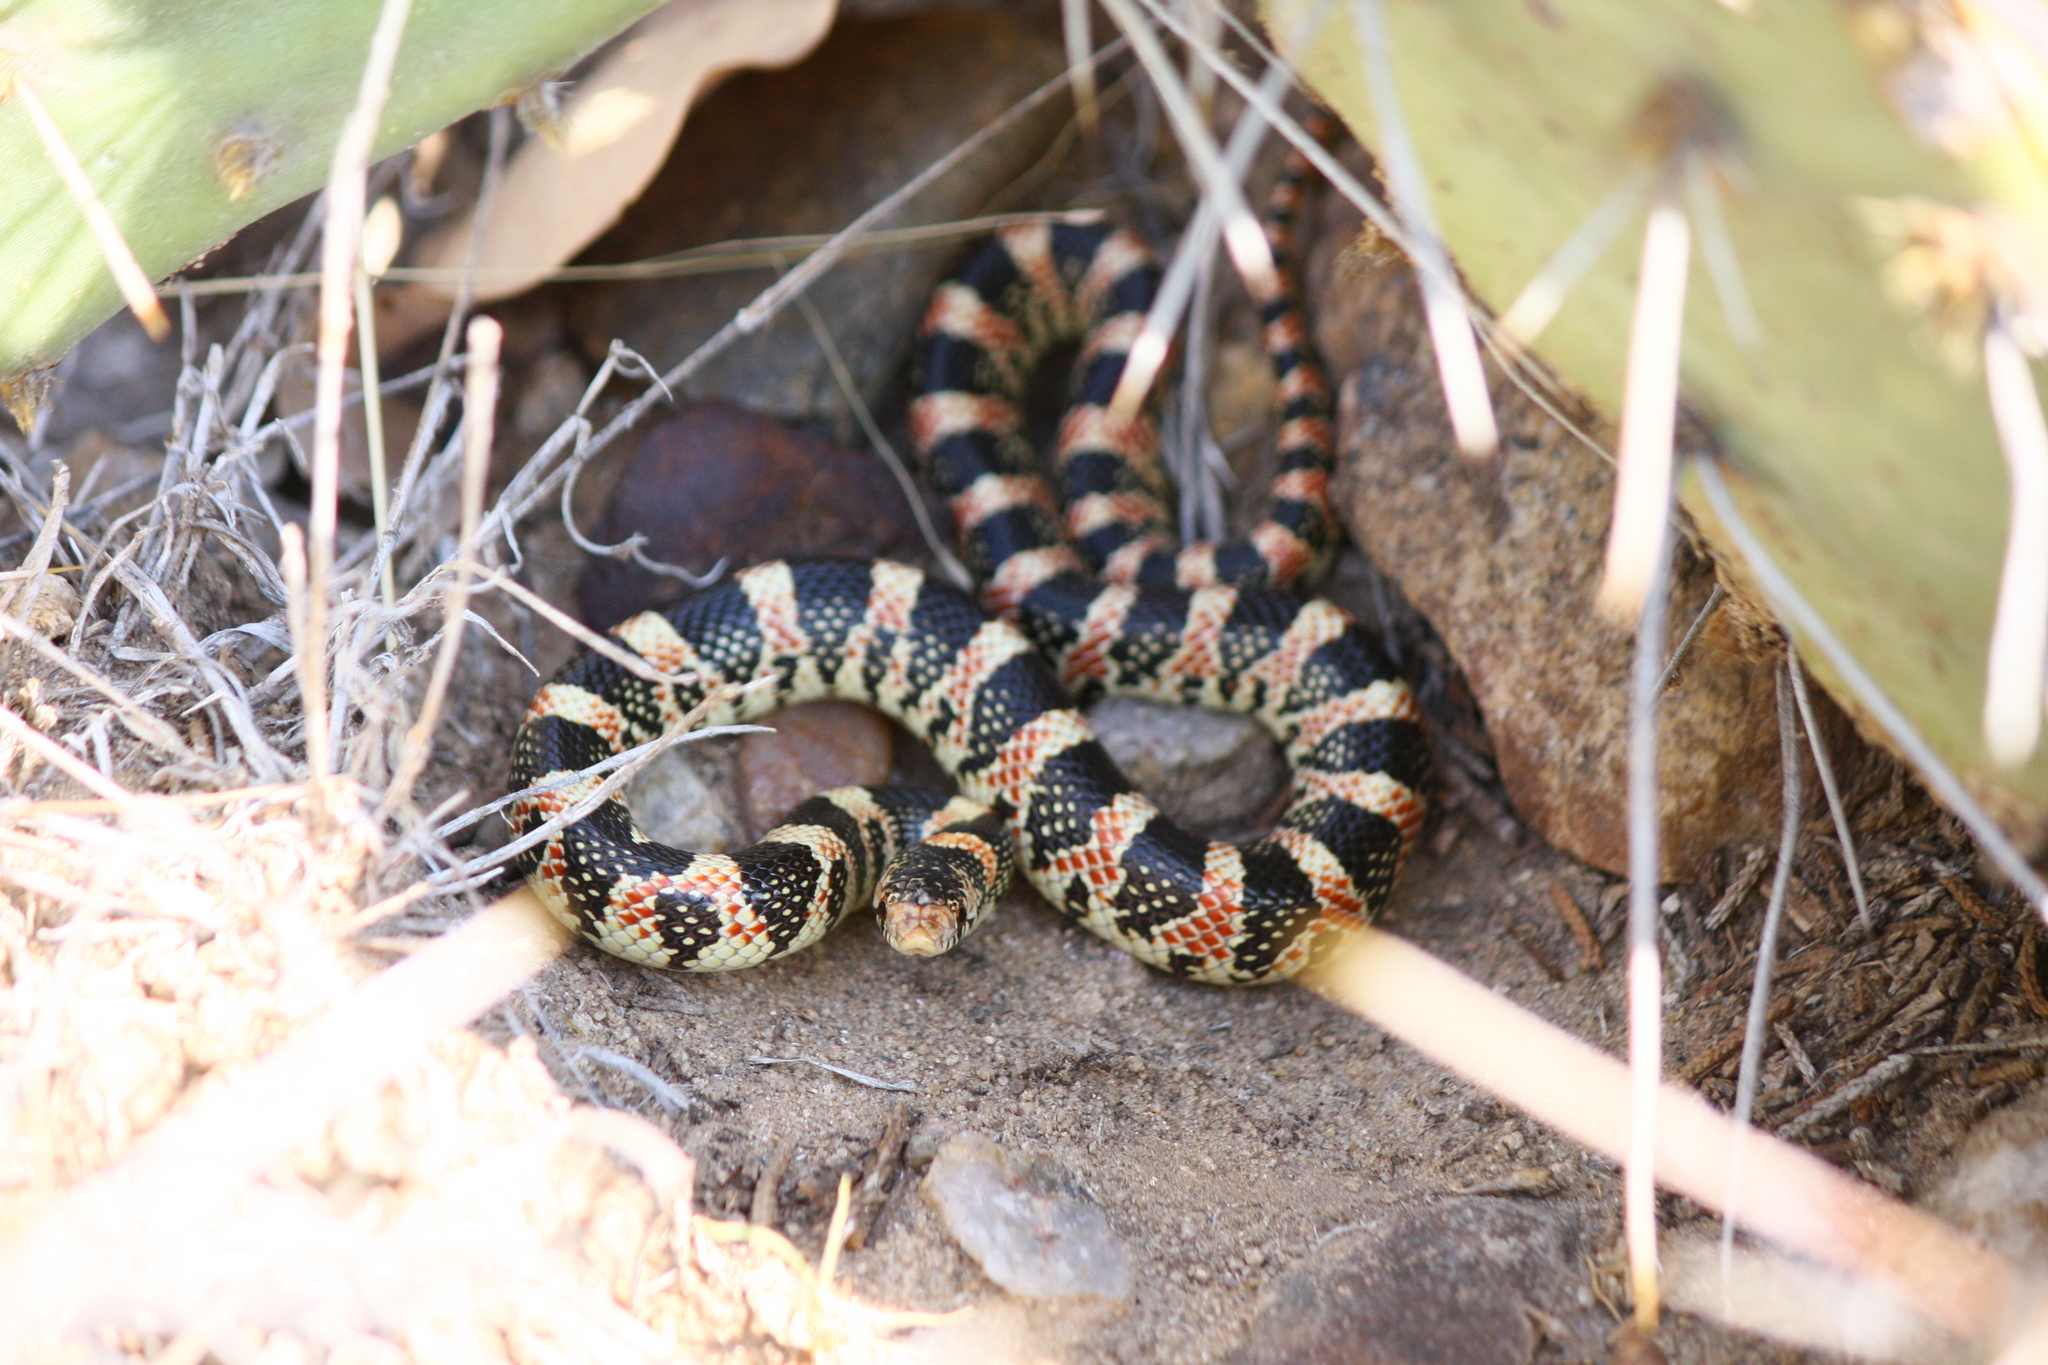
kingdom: Animalia
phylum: Chordata
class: Squamata
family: Colubridae
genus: Rhinocheilus
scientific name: Rhinocheilus lecontei
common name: Longnose snake
